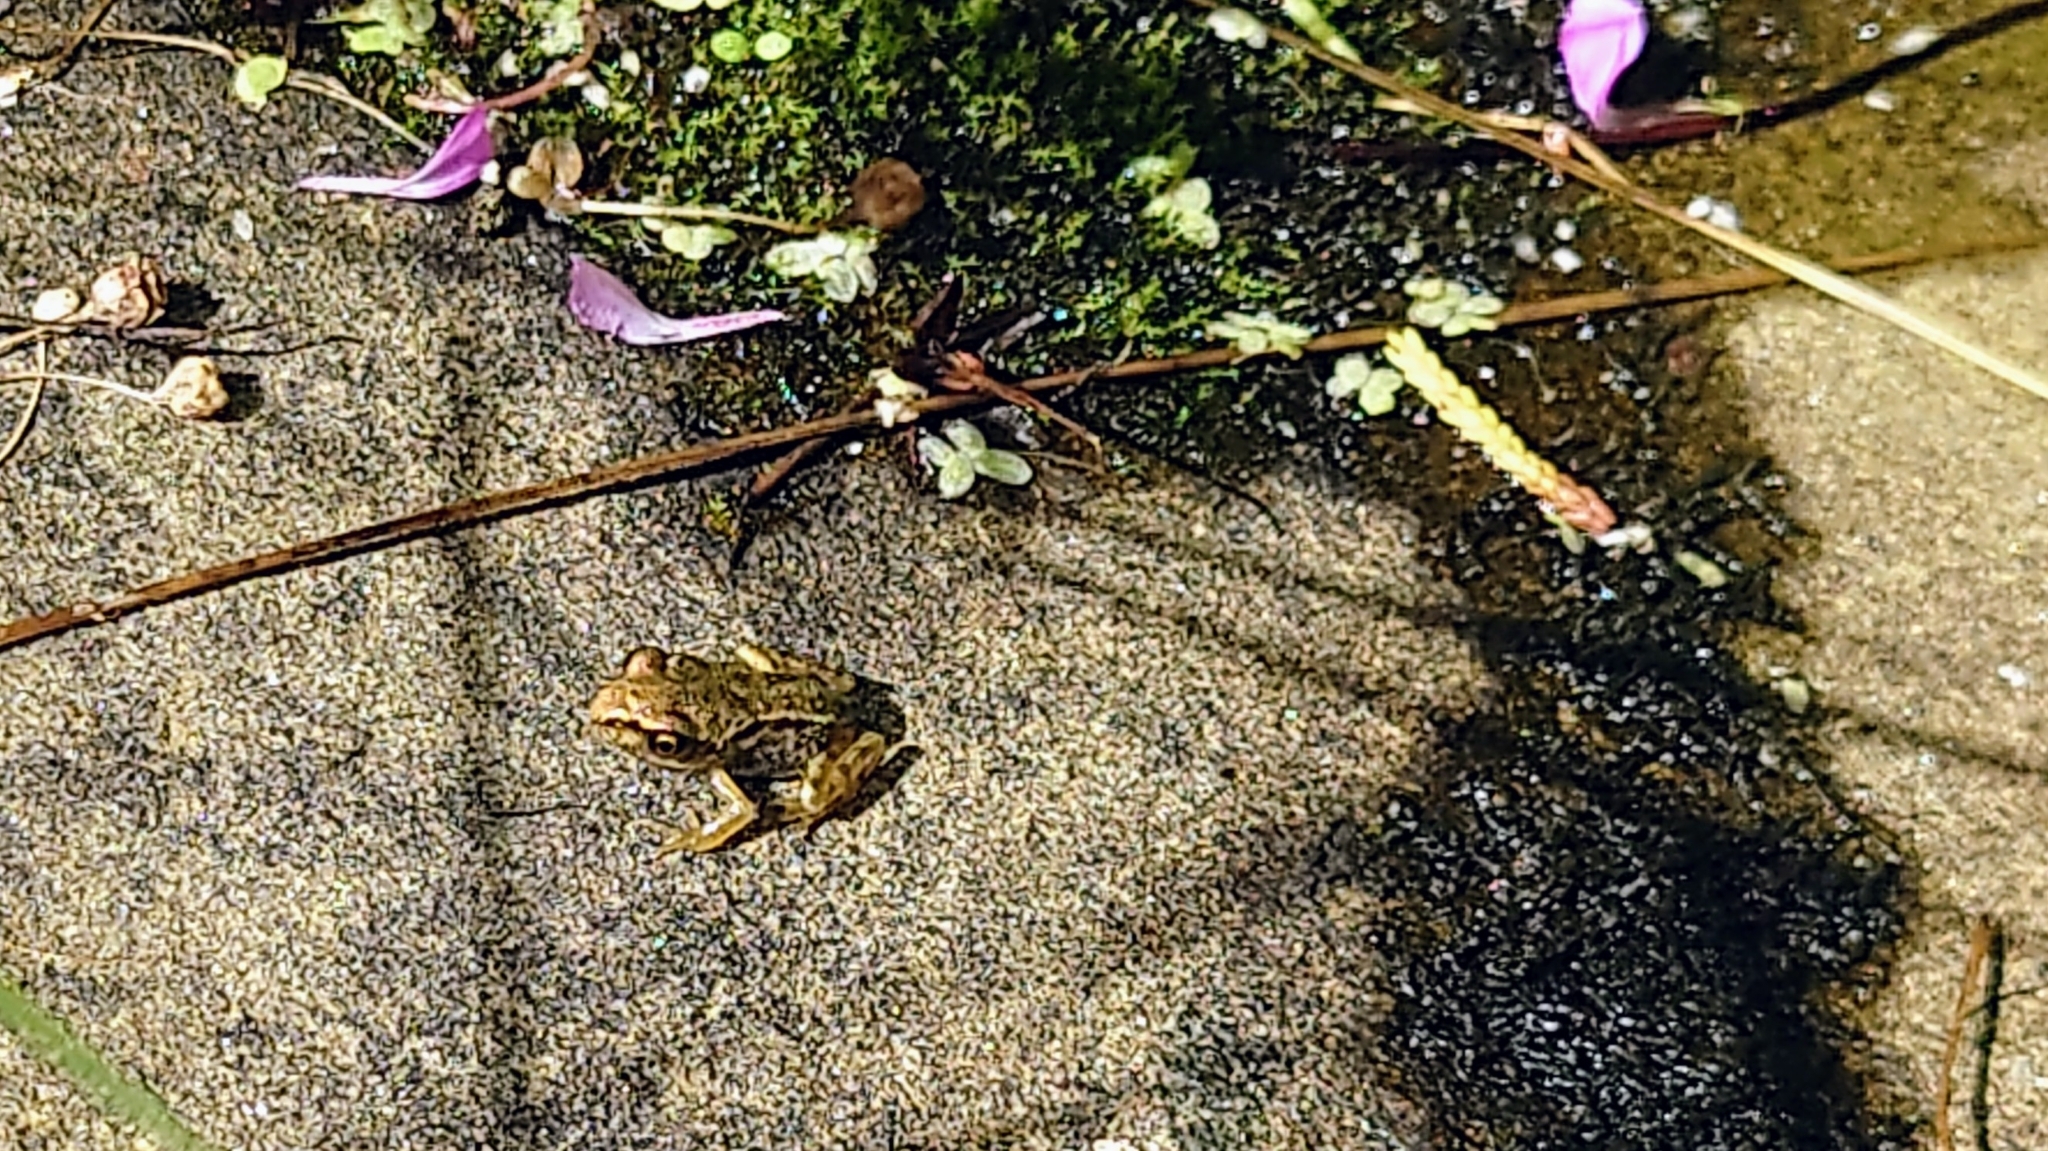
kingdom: Animalia
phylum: Chordata
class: Amphibia
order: Anura
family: Ranidae
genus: Rana
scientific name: Rana temporaria
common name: Common frog
